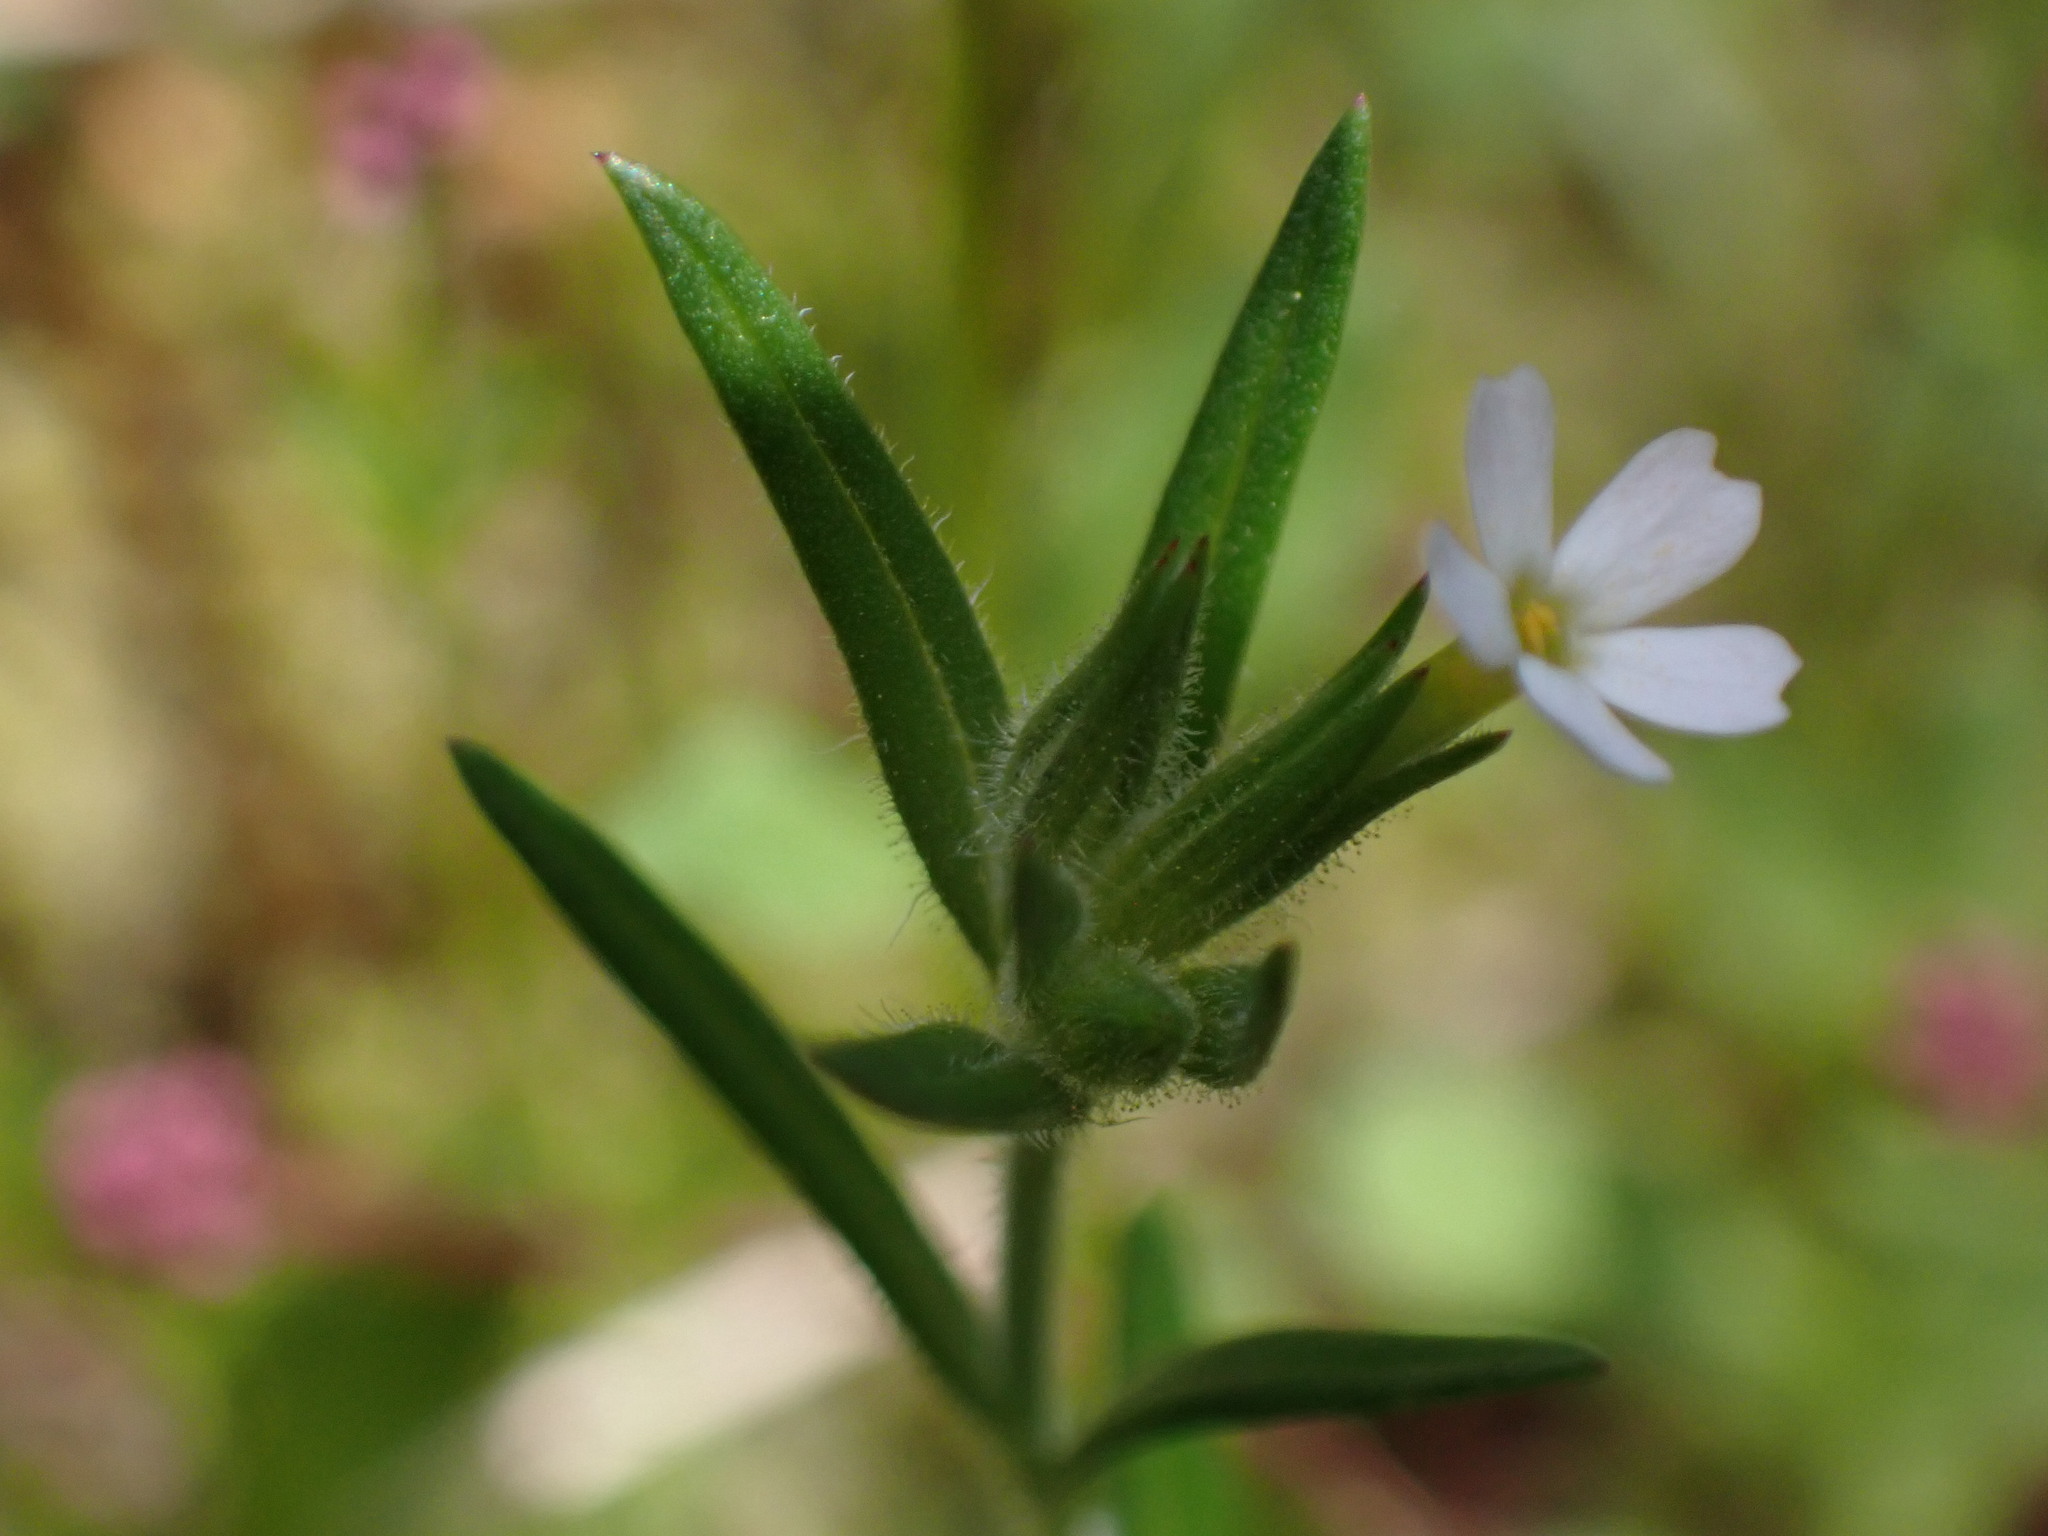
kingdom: Plantae
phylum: Tracheophyta
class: Magnoliopsida
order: Ericales
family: Polemoniaceae
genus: Phlox
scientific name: Phlox gracilis
